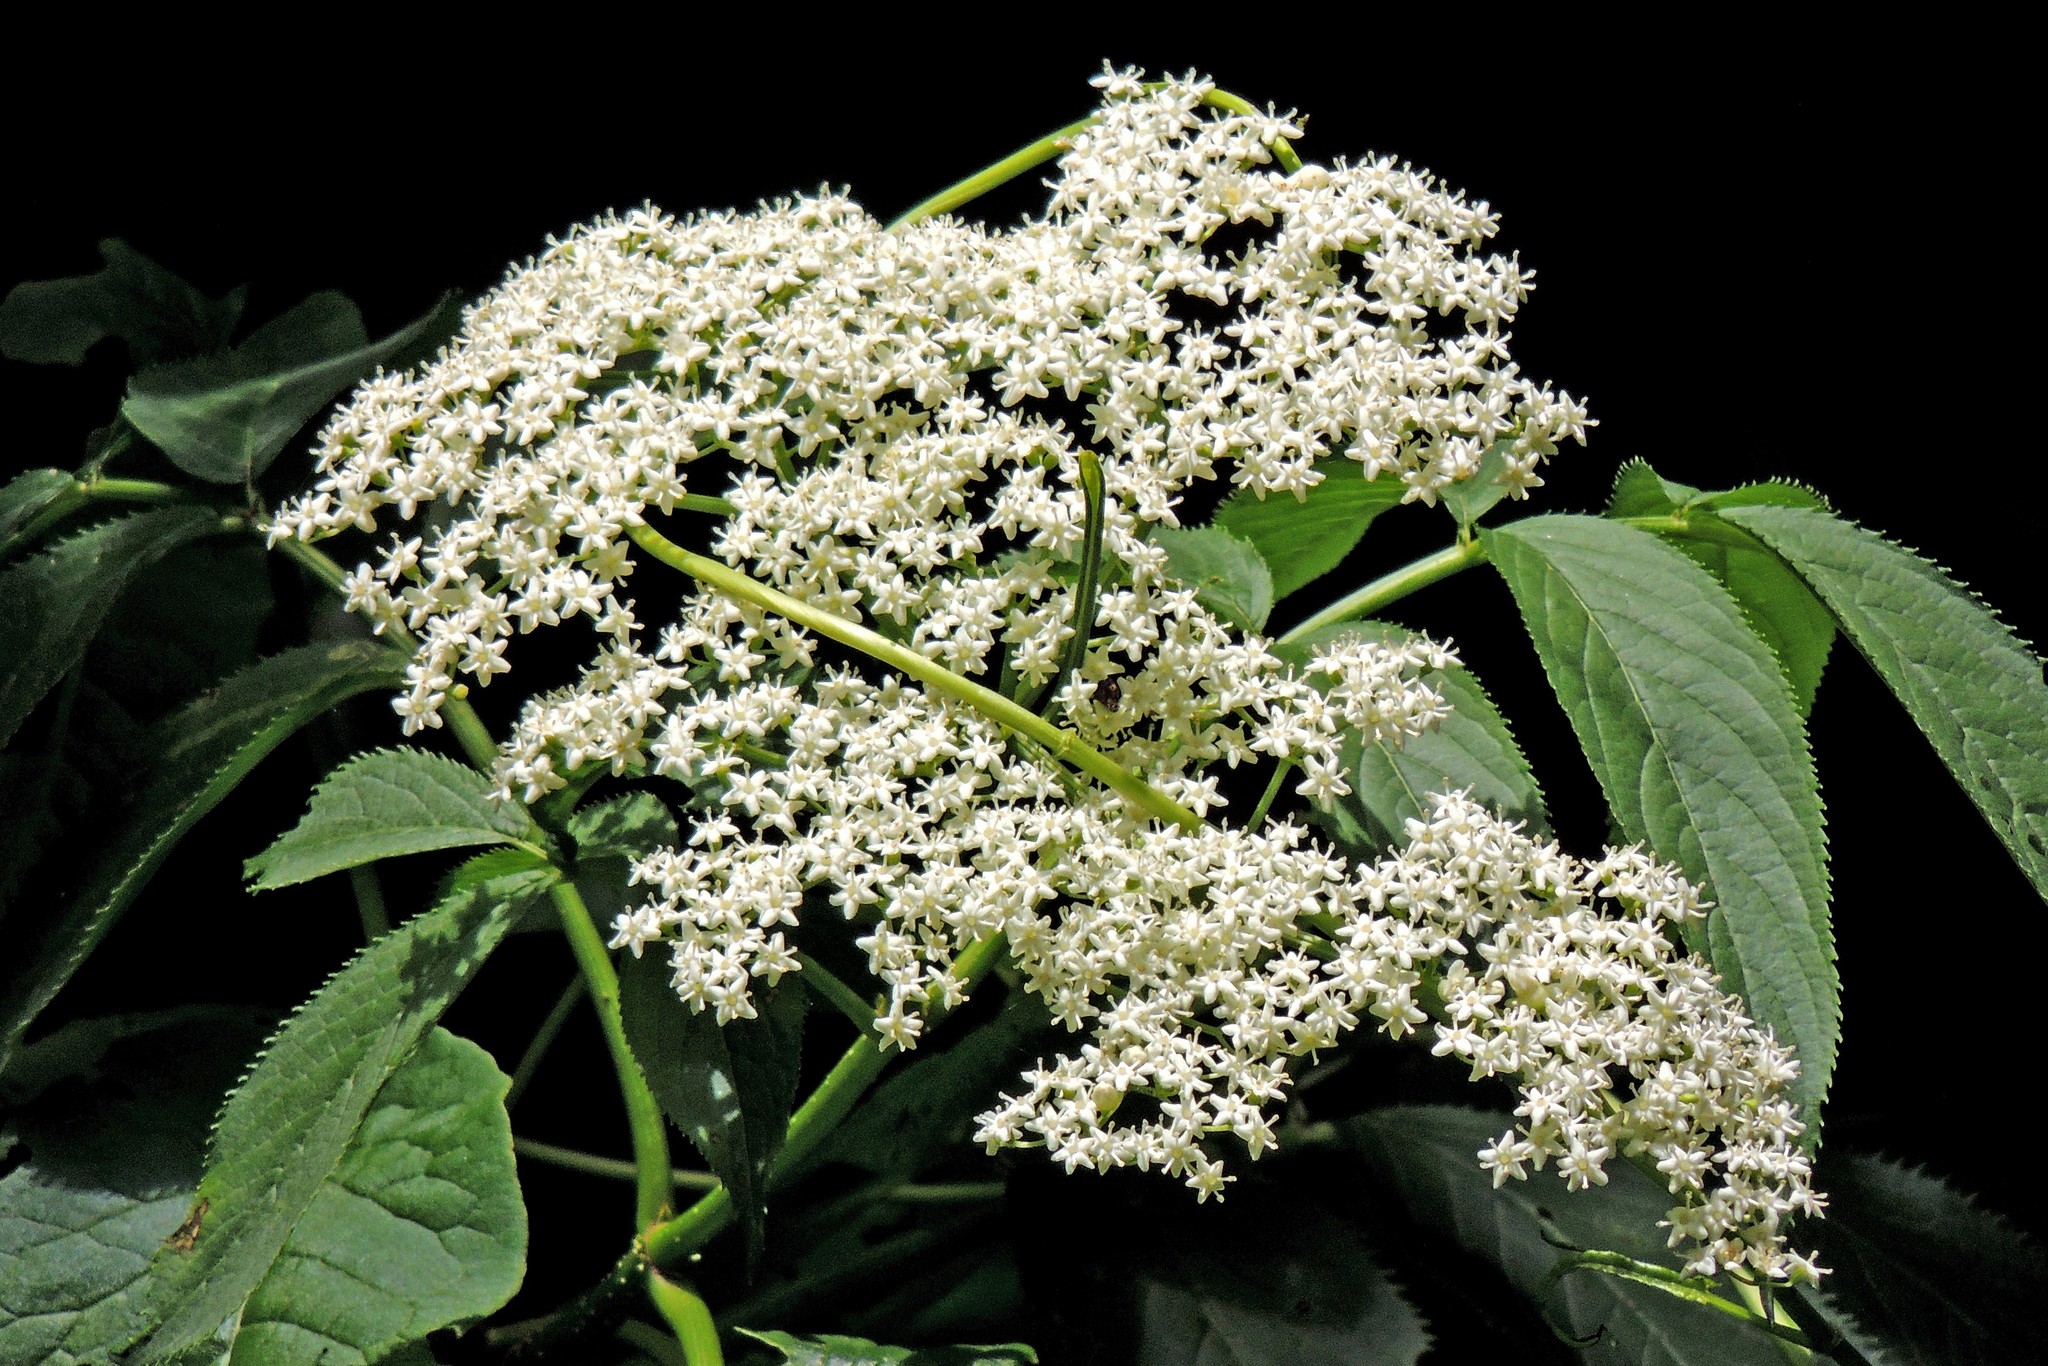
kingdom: Plantae
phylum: Tracheophyta
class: Magnoliopsida
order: Dipsacales
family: Viburnaceae
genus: Sambucus
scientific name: Sambucus peruviana
